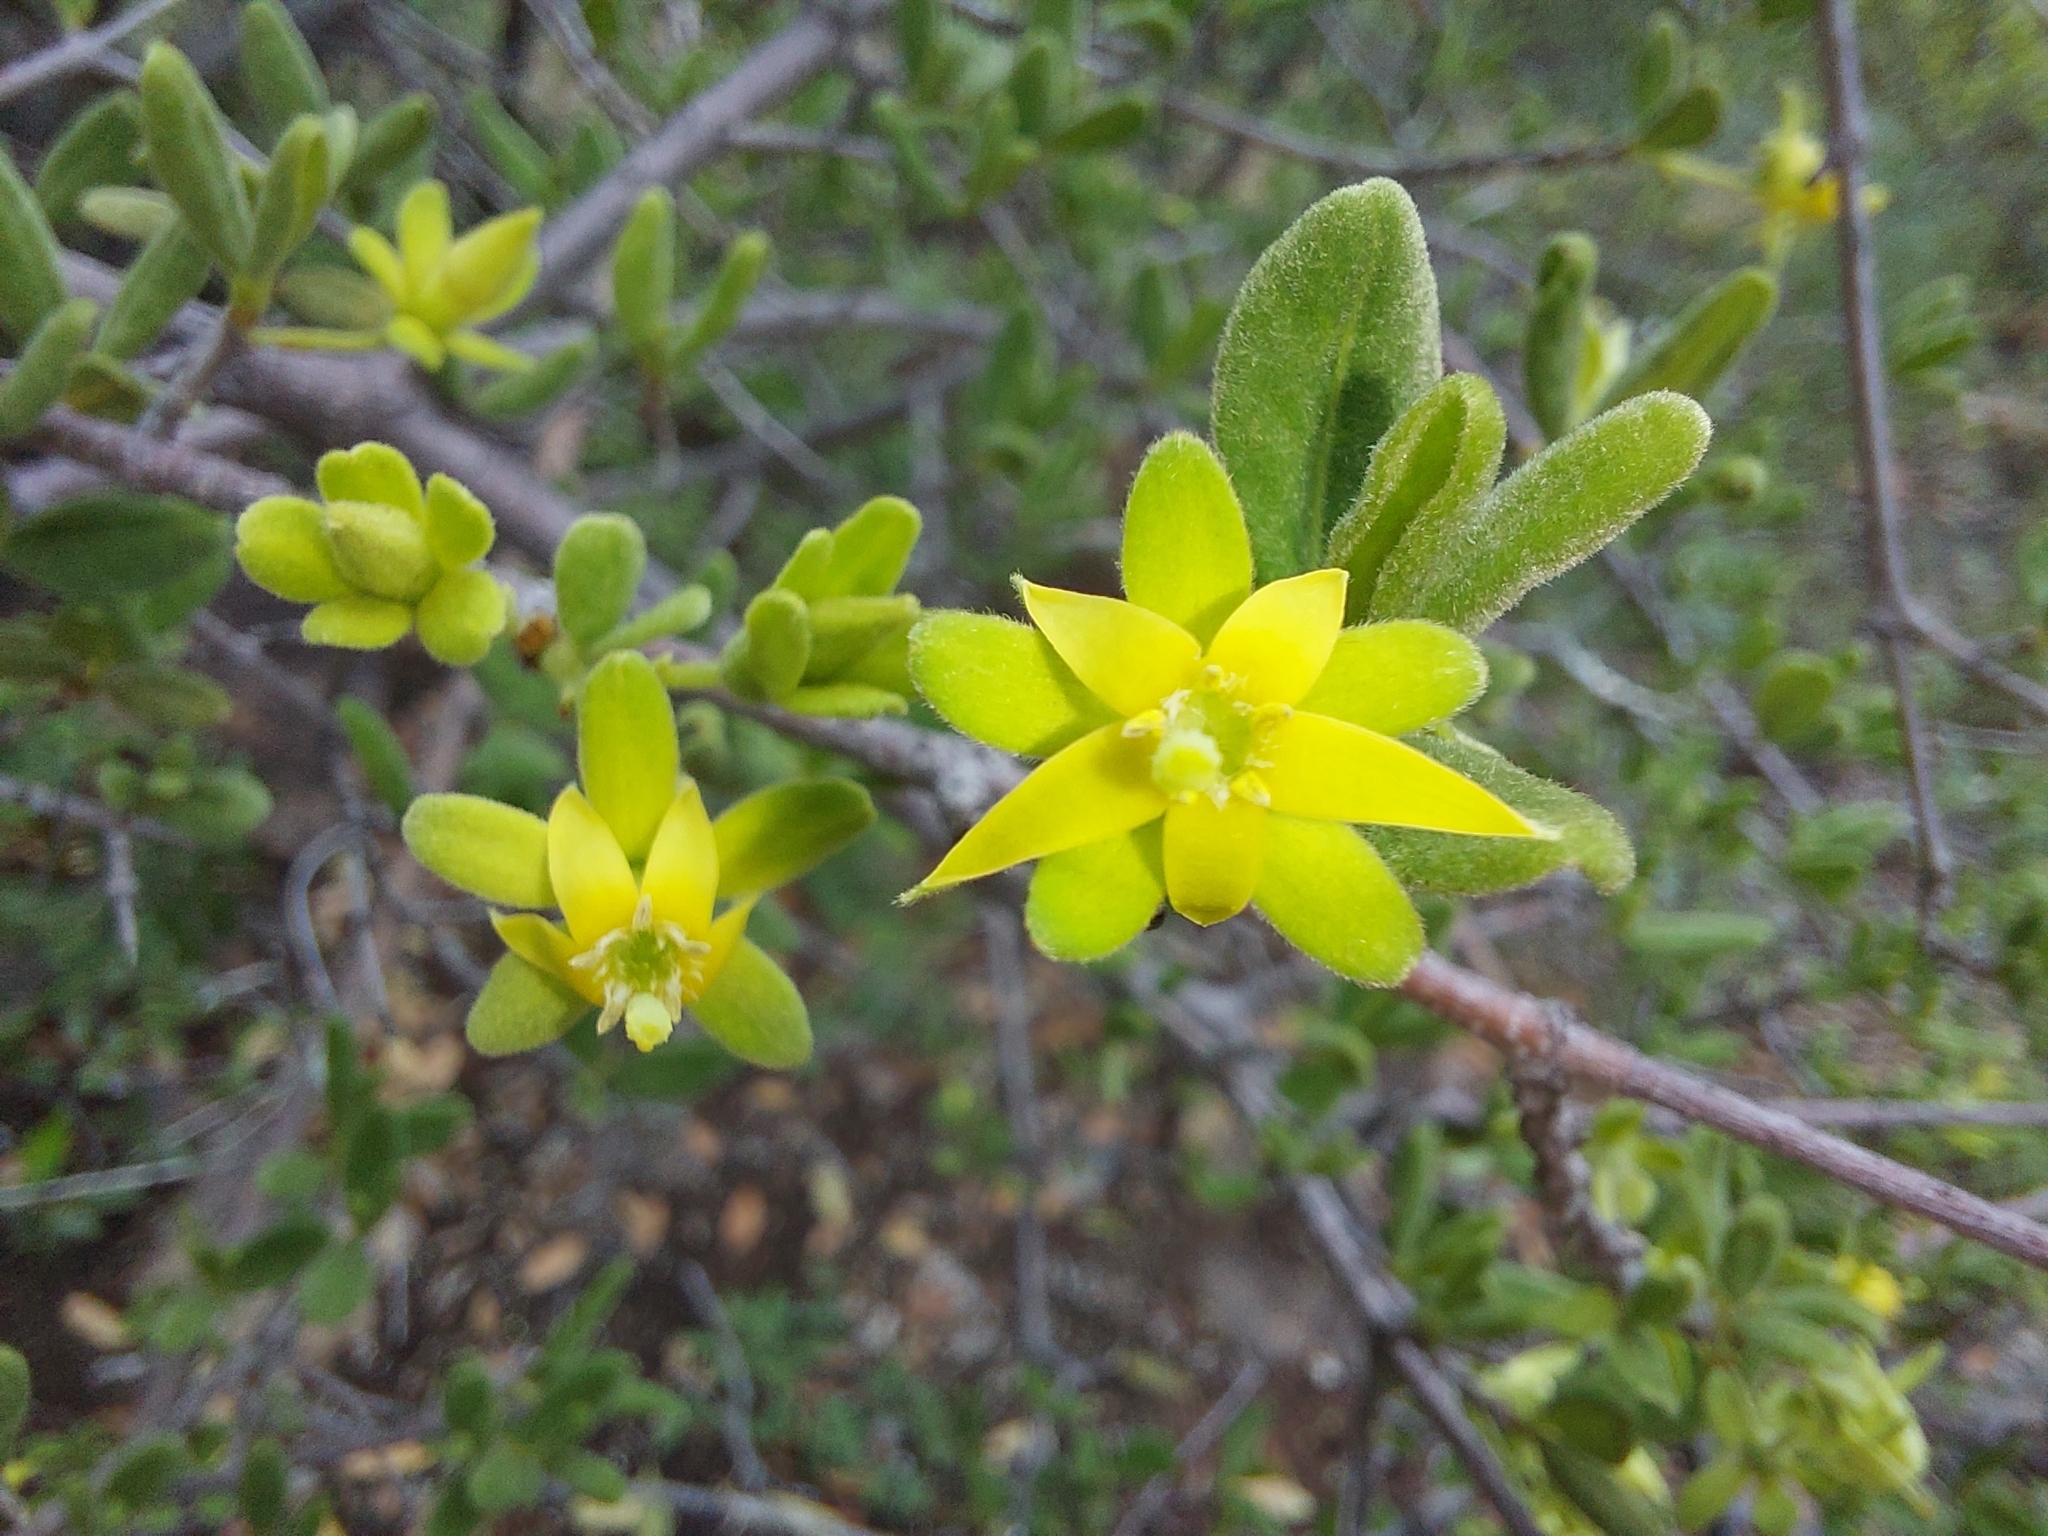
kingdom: Plantae
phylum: Tracheophyta
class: Magnoliopsida
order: Gentianales
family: Rubiaceae
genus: Vangueria
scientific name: Vangueria triflora
